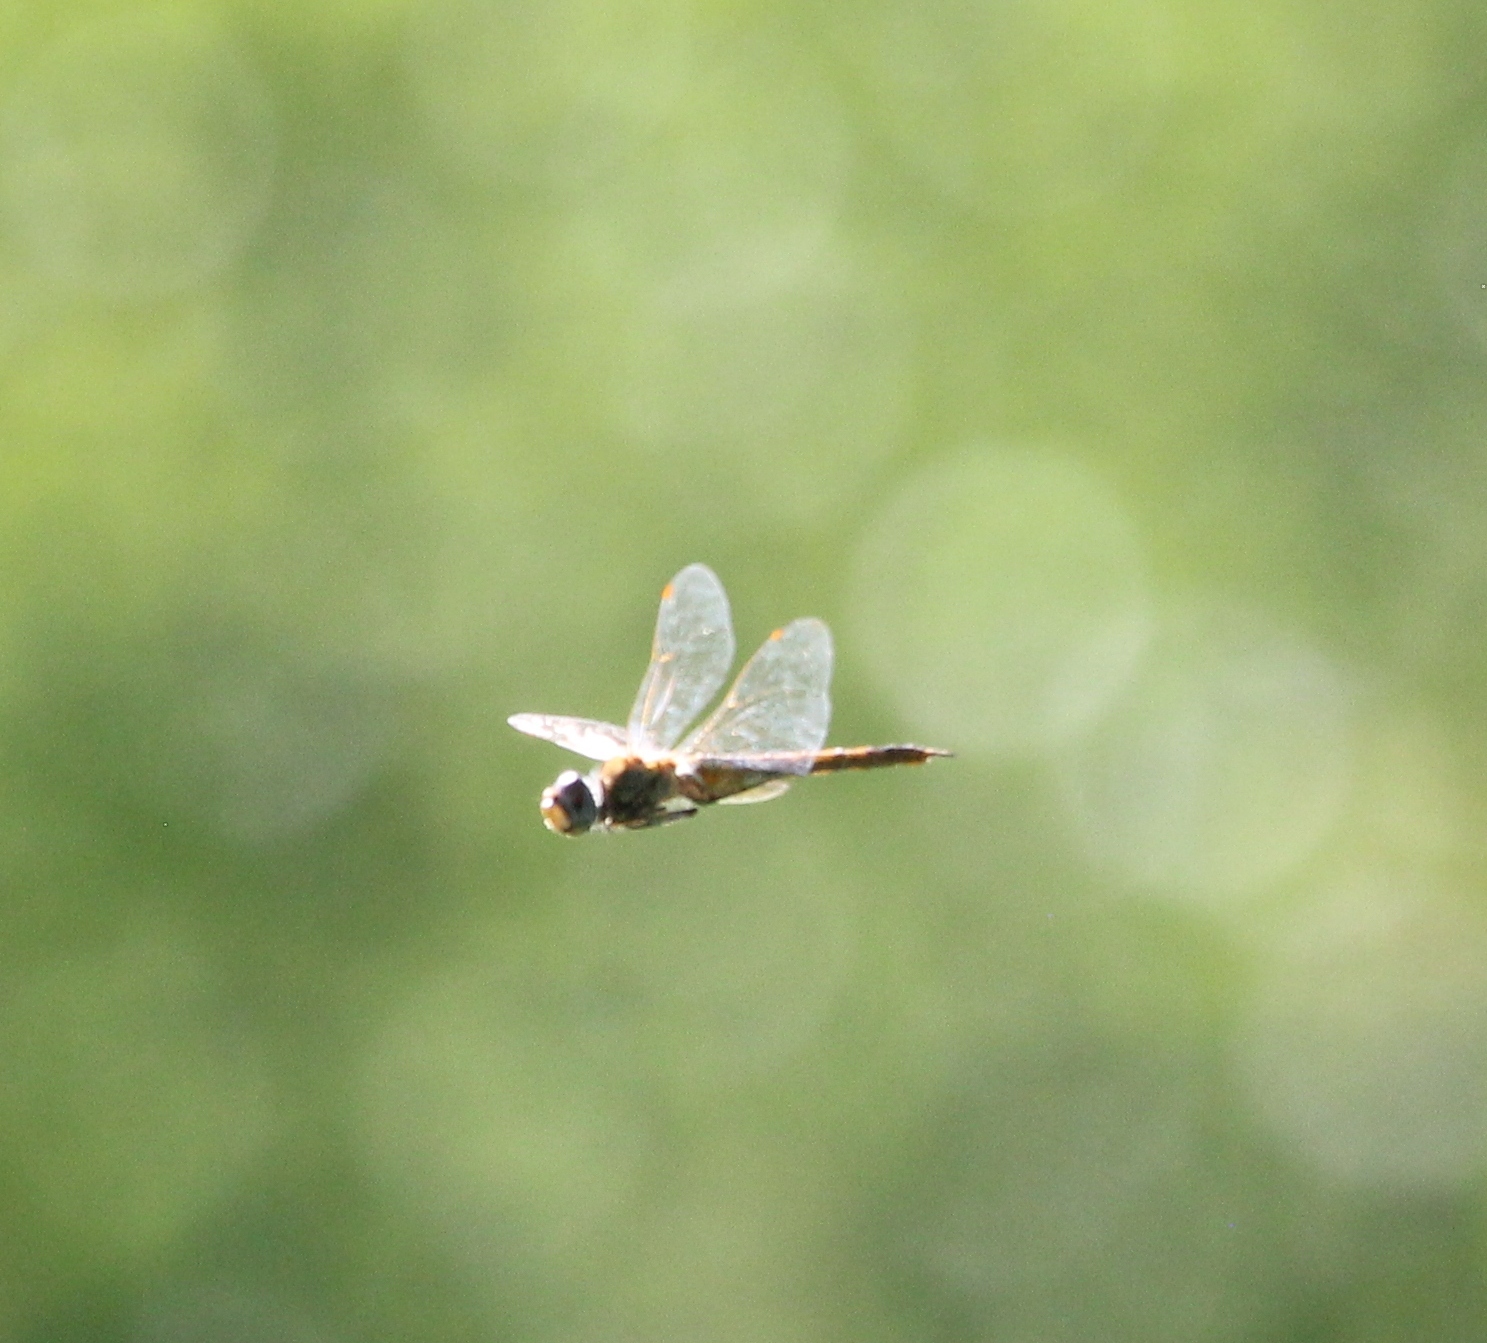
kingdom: Animalia
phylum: Arthropoda
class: Insecta
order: Odonata
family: Libellulidae
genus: Pantala
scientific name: Pantala flavescens
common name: Wandering glider
